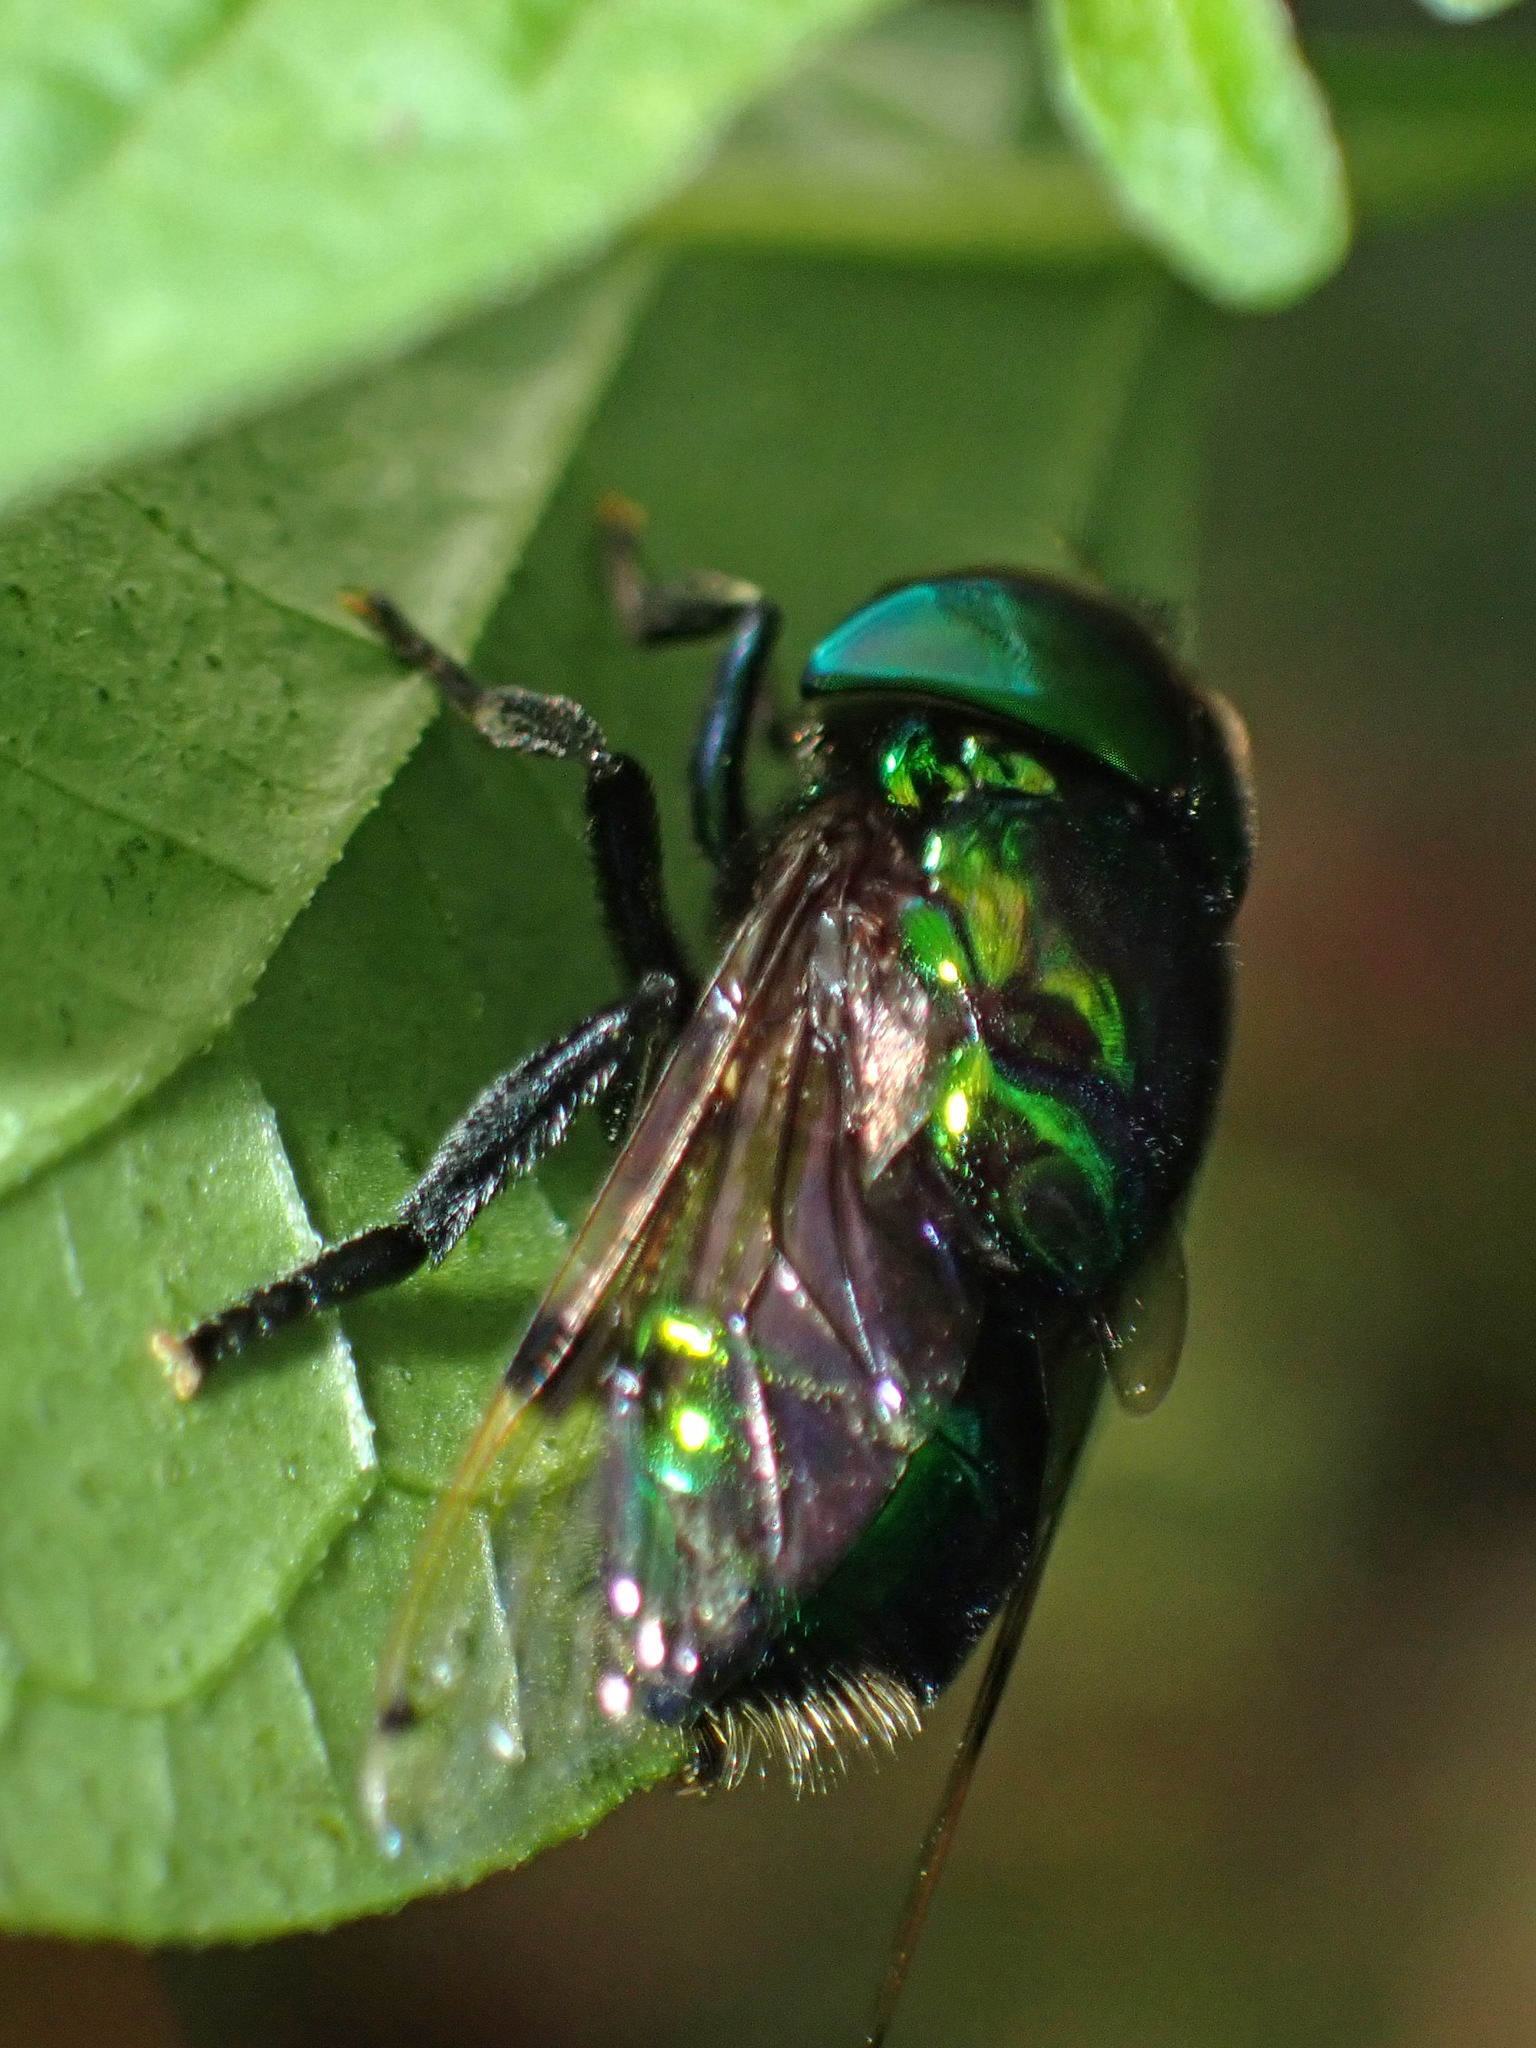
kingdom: Animalia
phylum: Arthropoda
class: Insecta
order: Diptera
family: Syrphidae
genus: Ornidia
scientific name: Ornidia obesa
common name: Syrphid fly
